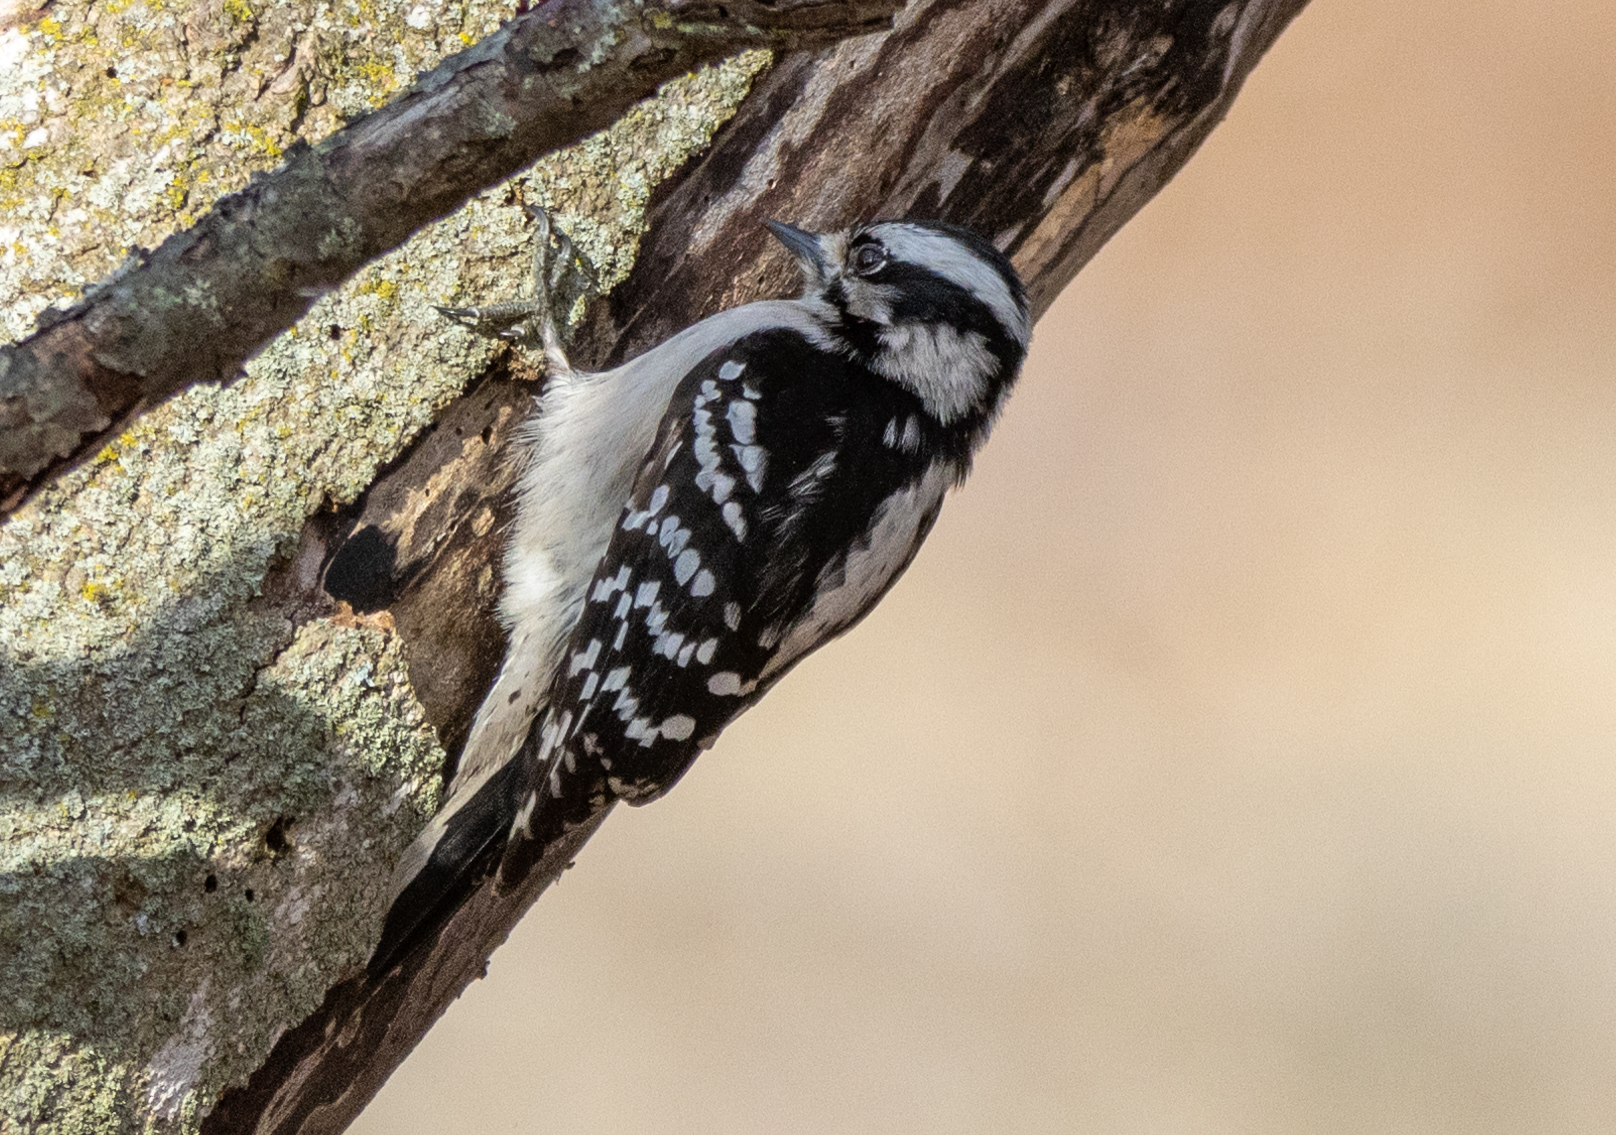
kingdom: Animalia
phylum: Chordata
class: Aves
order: Piciformes
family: Picidae
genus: Dryobates
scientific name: Dryobates pubescens
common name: Downy woodpecker
